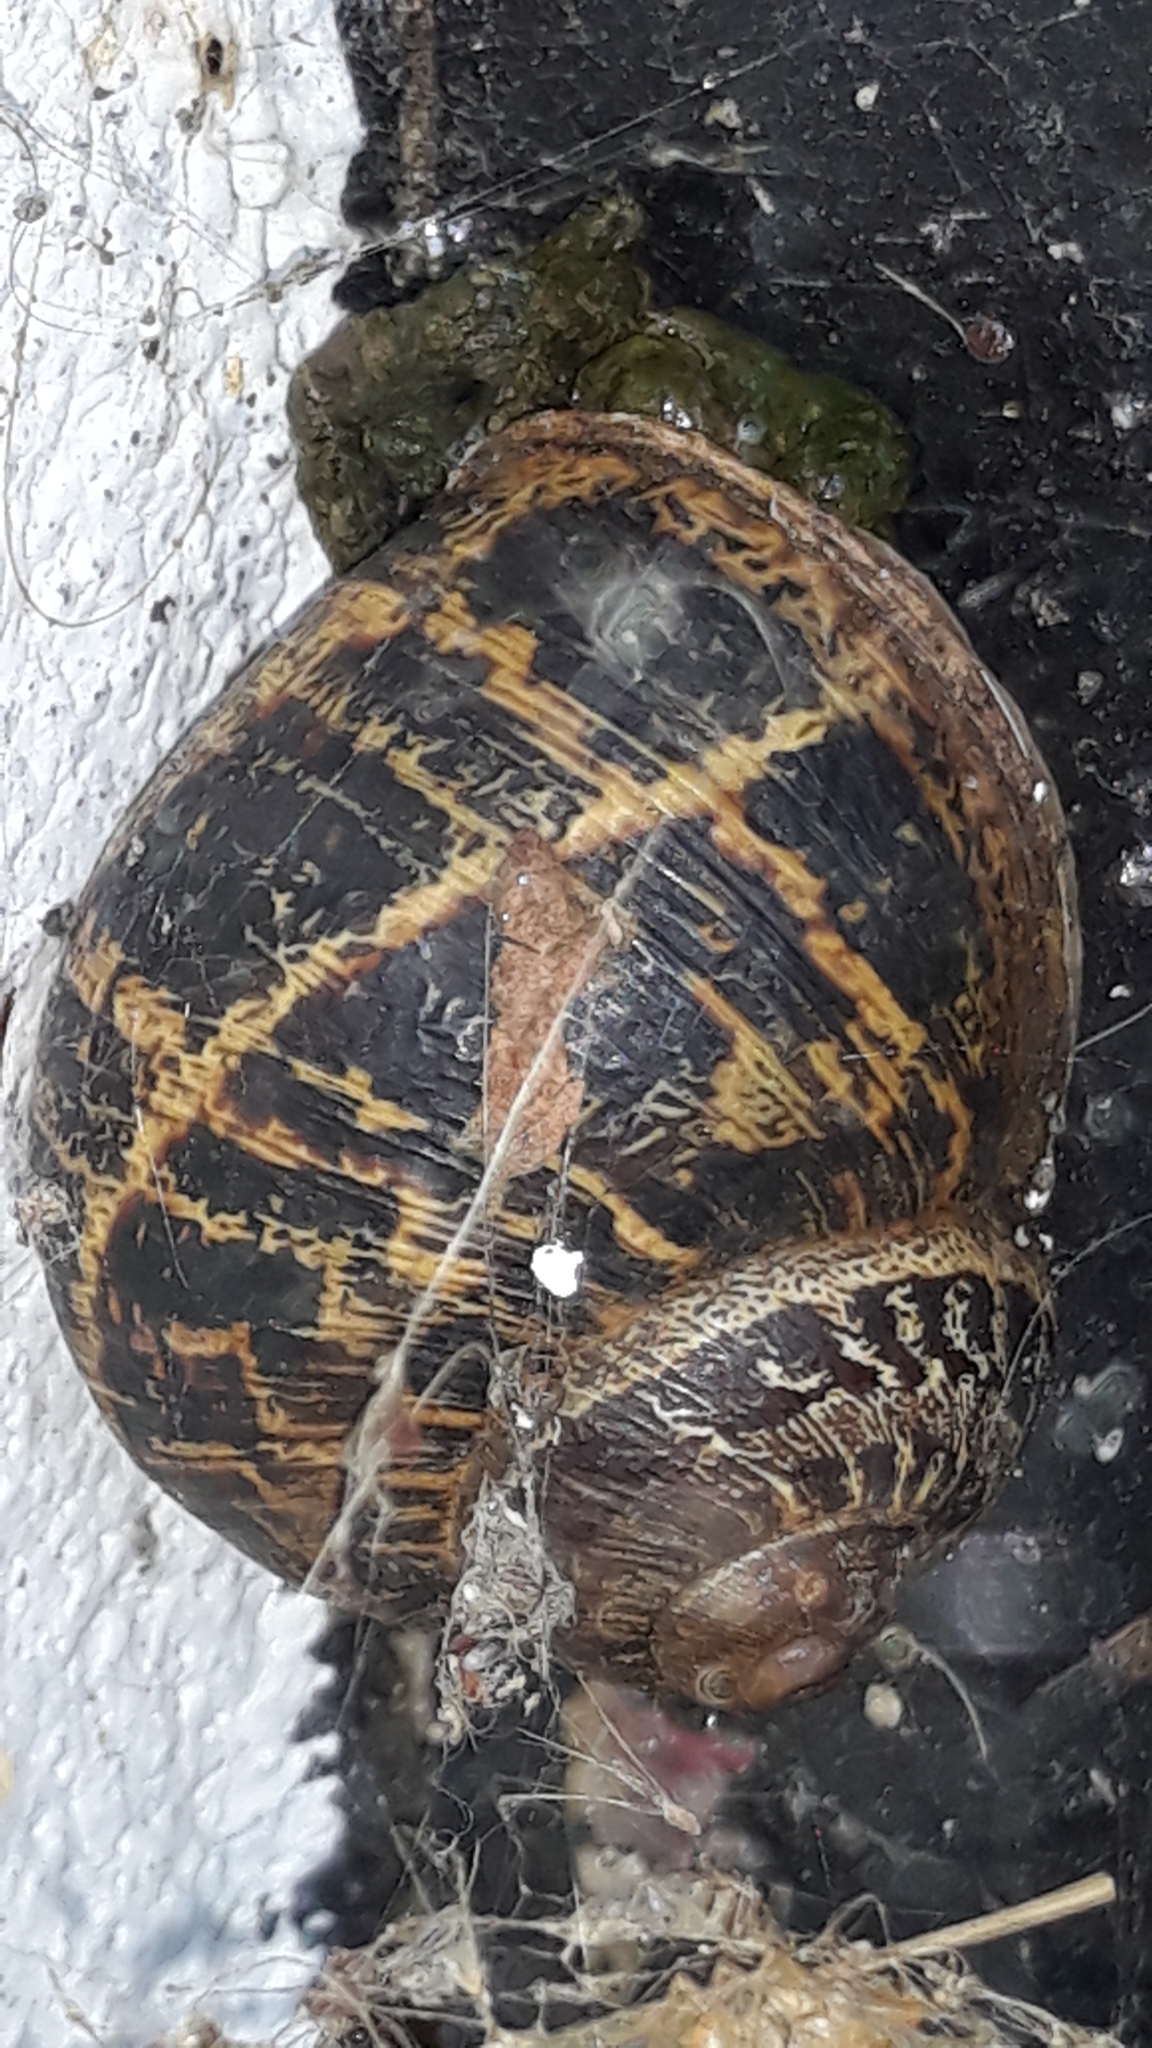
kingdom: Animalia
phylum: Mollusca
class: Gastropoda
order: Stylommatophora
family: Helicidae
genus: Cornu
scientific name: Cornu aspersum
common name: Brown garden snail
